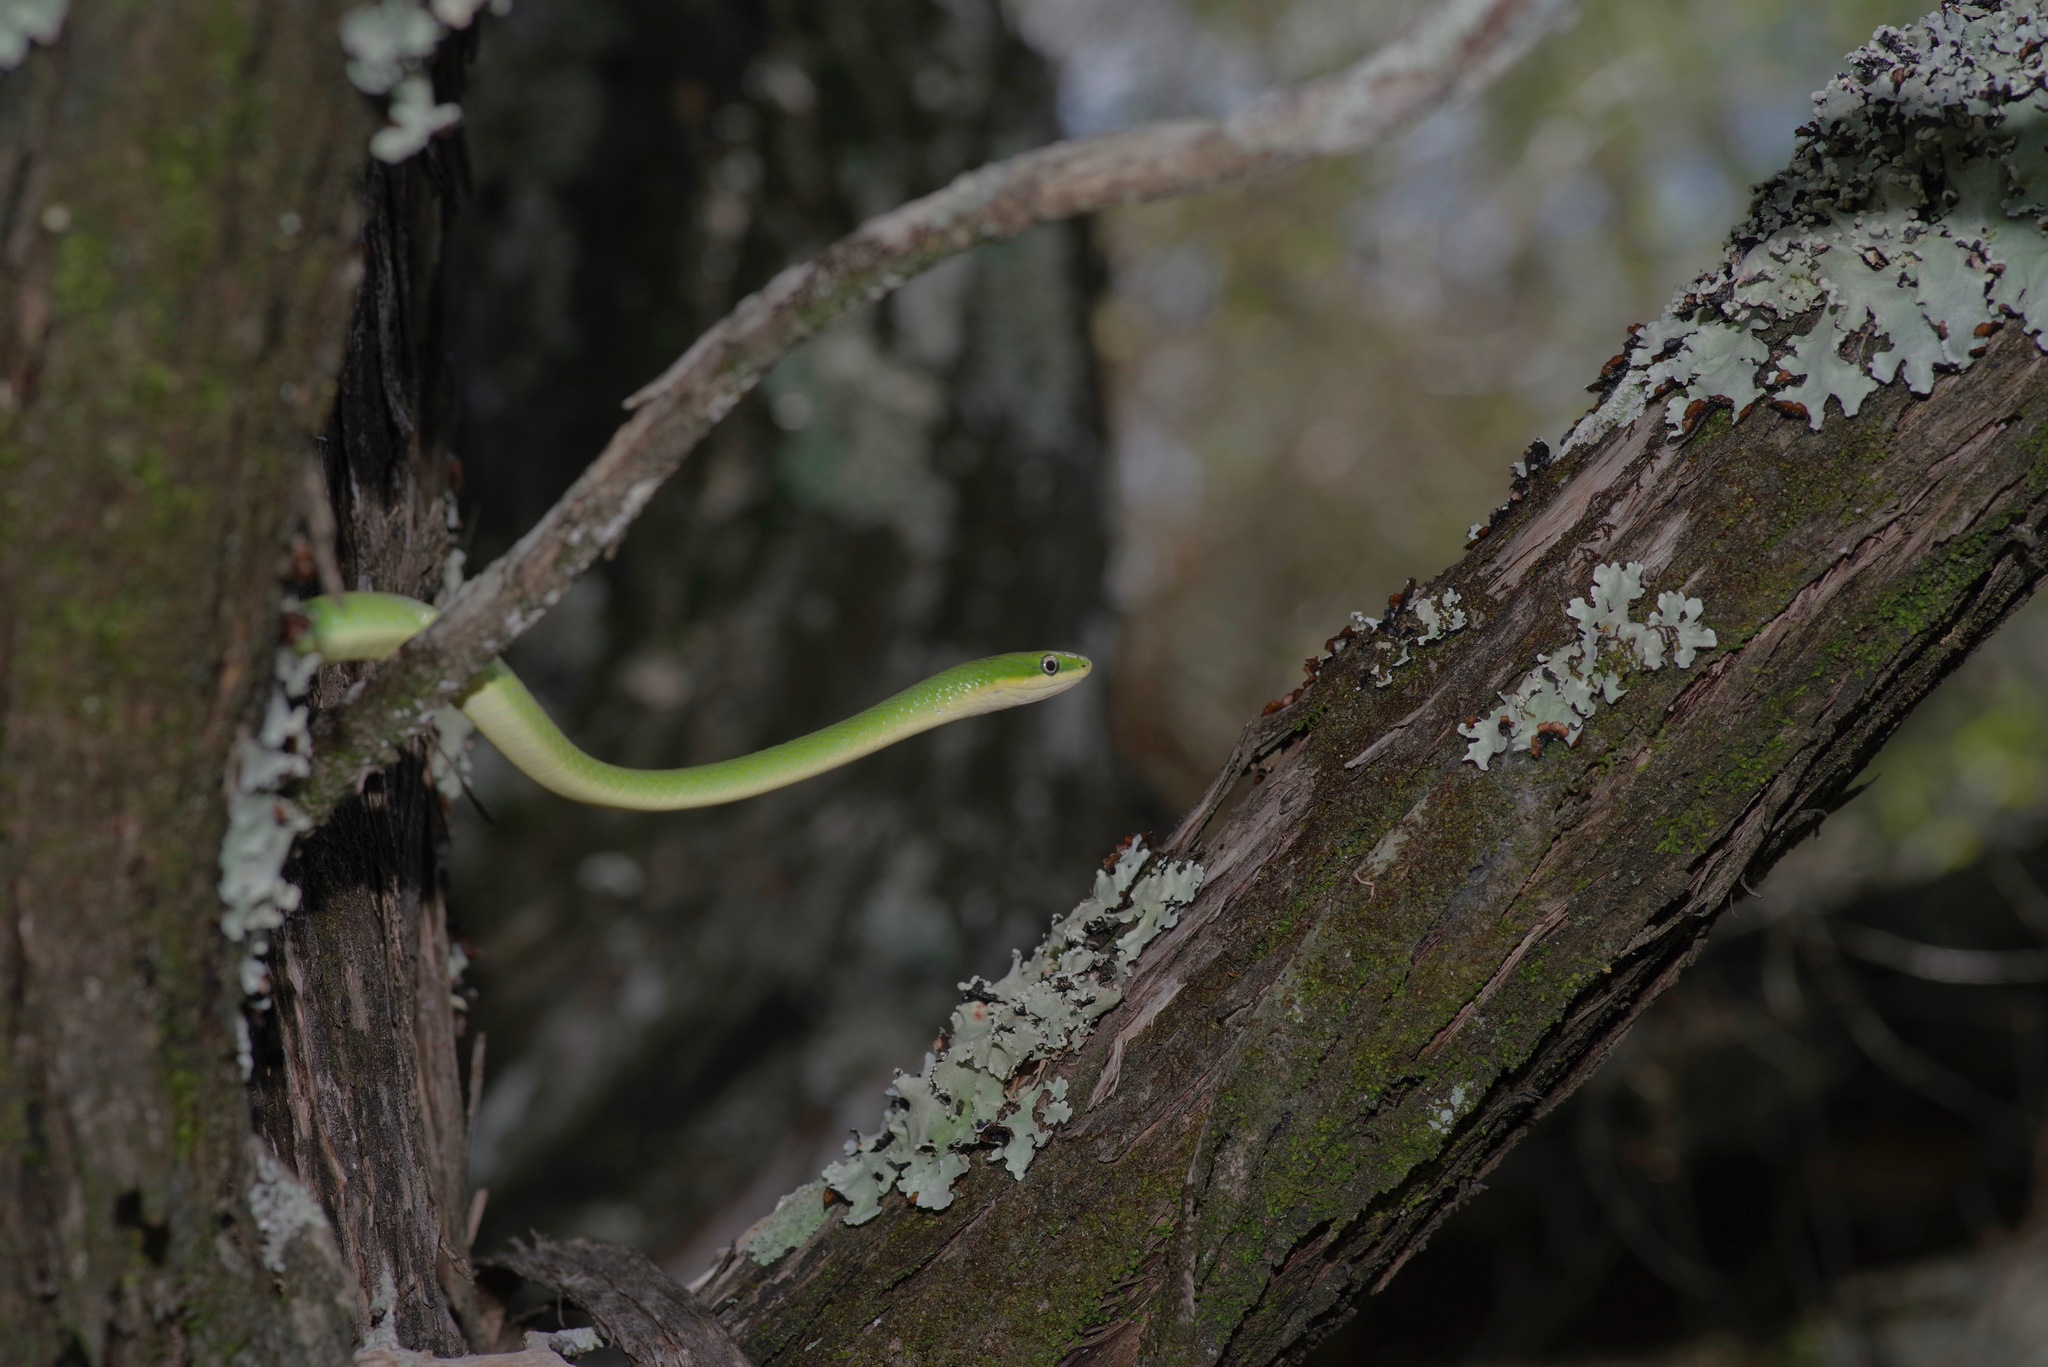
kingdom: Animalia
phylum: Chordata
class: Squamata
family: Colubridae
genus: Opheodrys
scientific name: Opheodrys aestivus
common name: Rough greensnake
